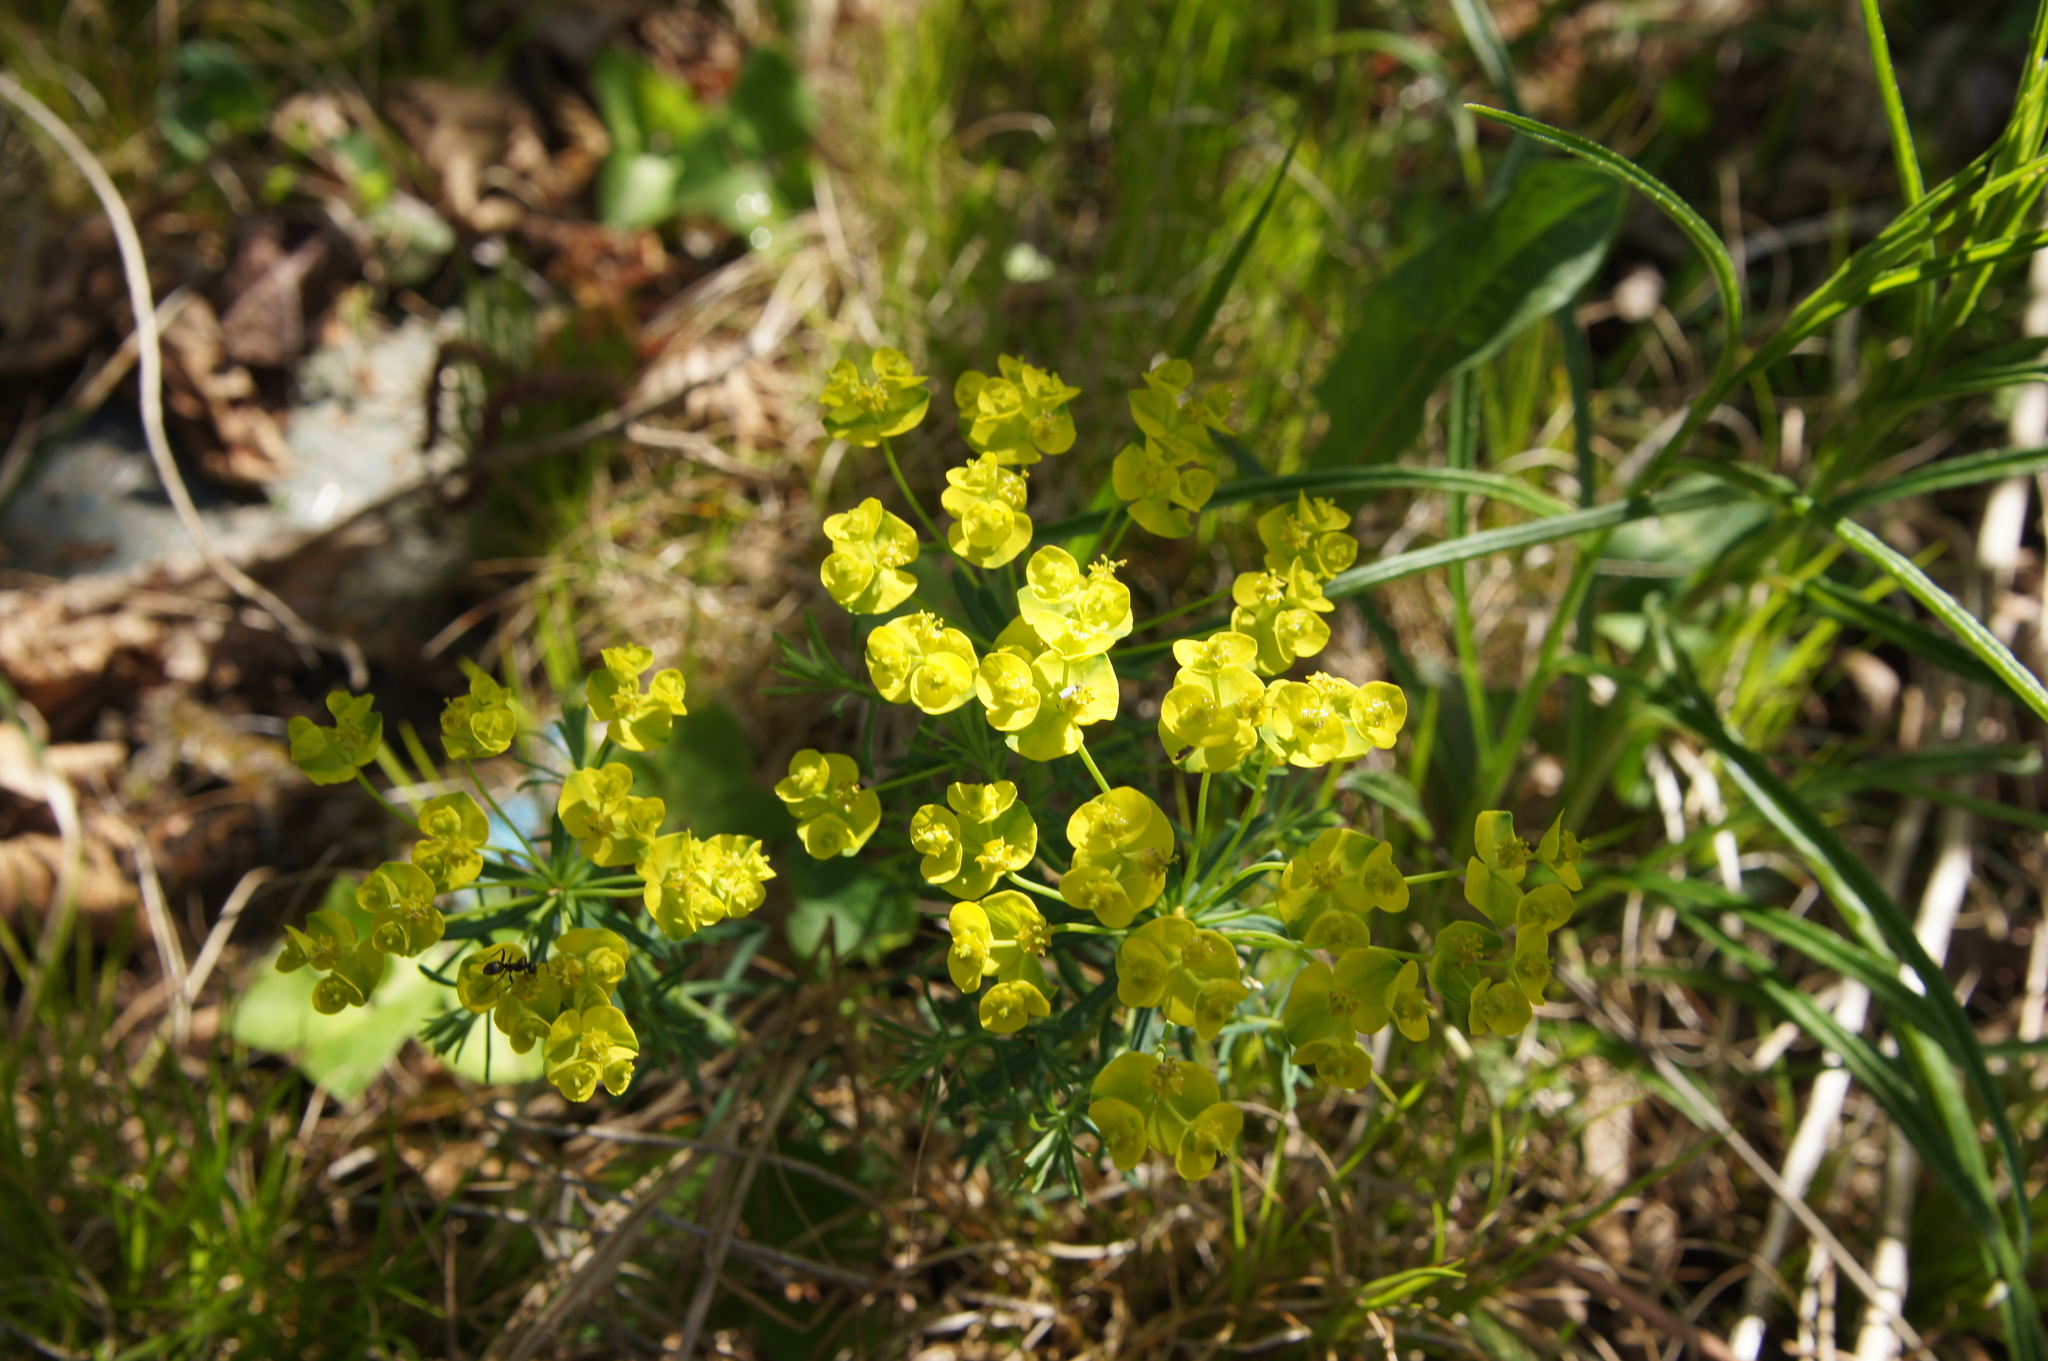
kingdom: Plantae
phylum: Tracheophyta
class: Magnoliopsida
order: Malpighiales
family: Euphorbiaceae
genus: Euphorbia
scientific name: Euphorbia cyparissias
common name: Cypress spurge
